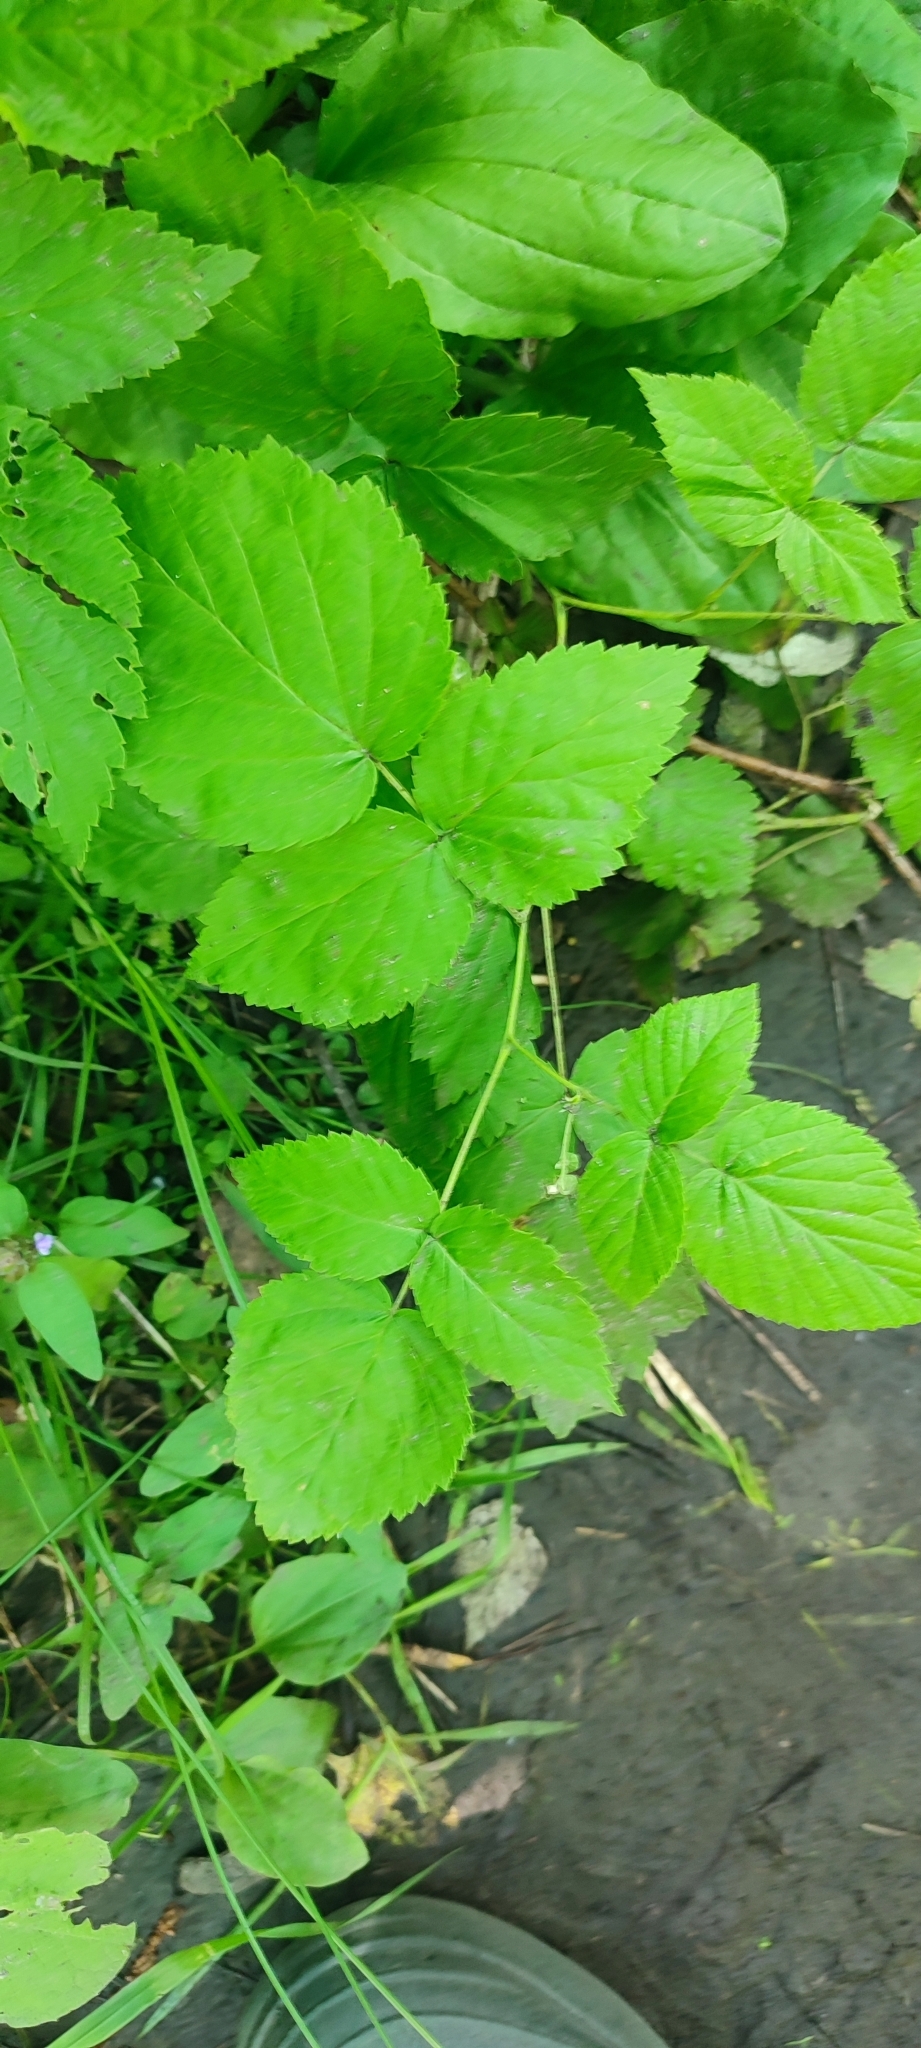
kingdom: Plantae
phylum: Tracheophyta
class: Magnoliopsida
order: Rosales
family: Rosaceae
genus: Rubus
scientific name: Rubus idaeus
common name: Raspberry
